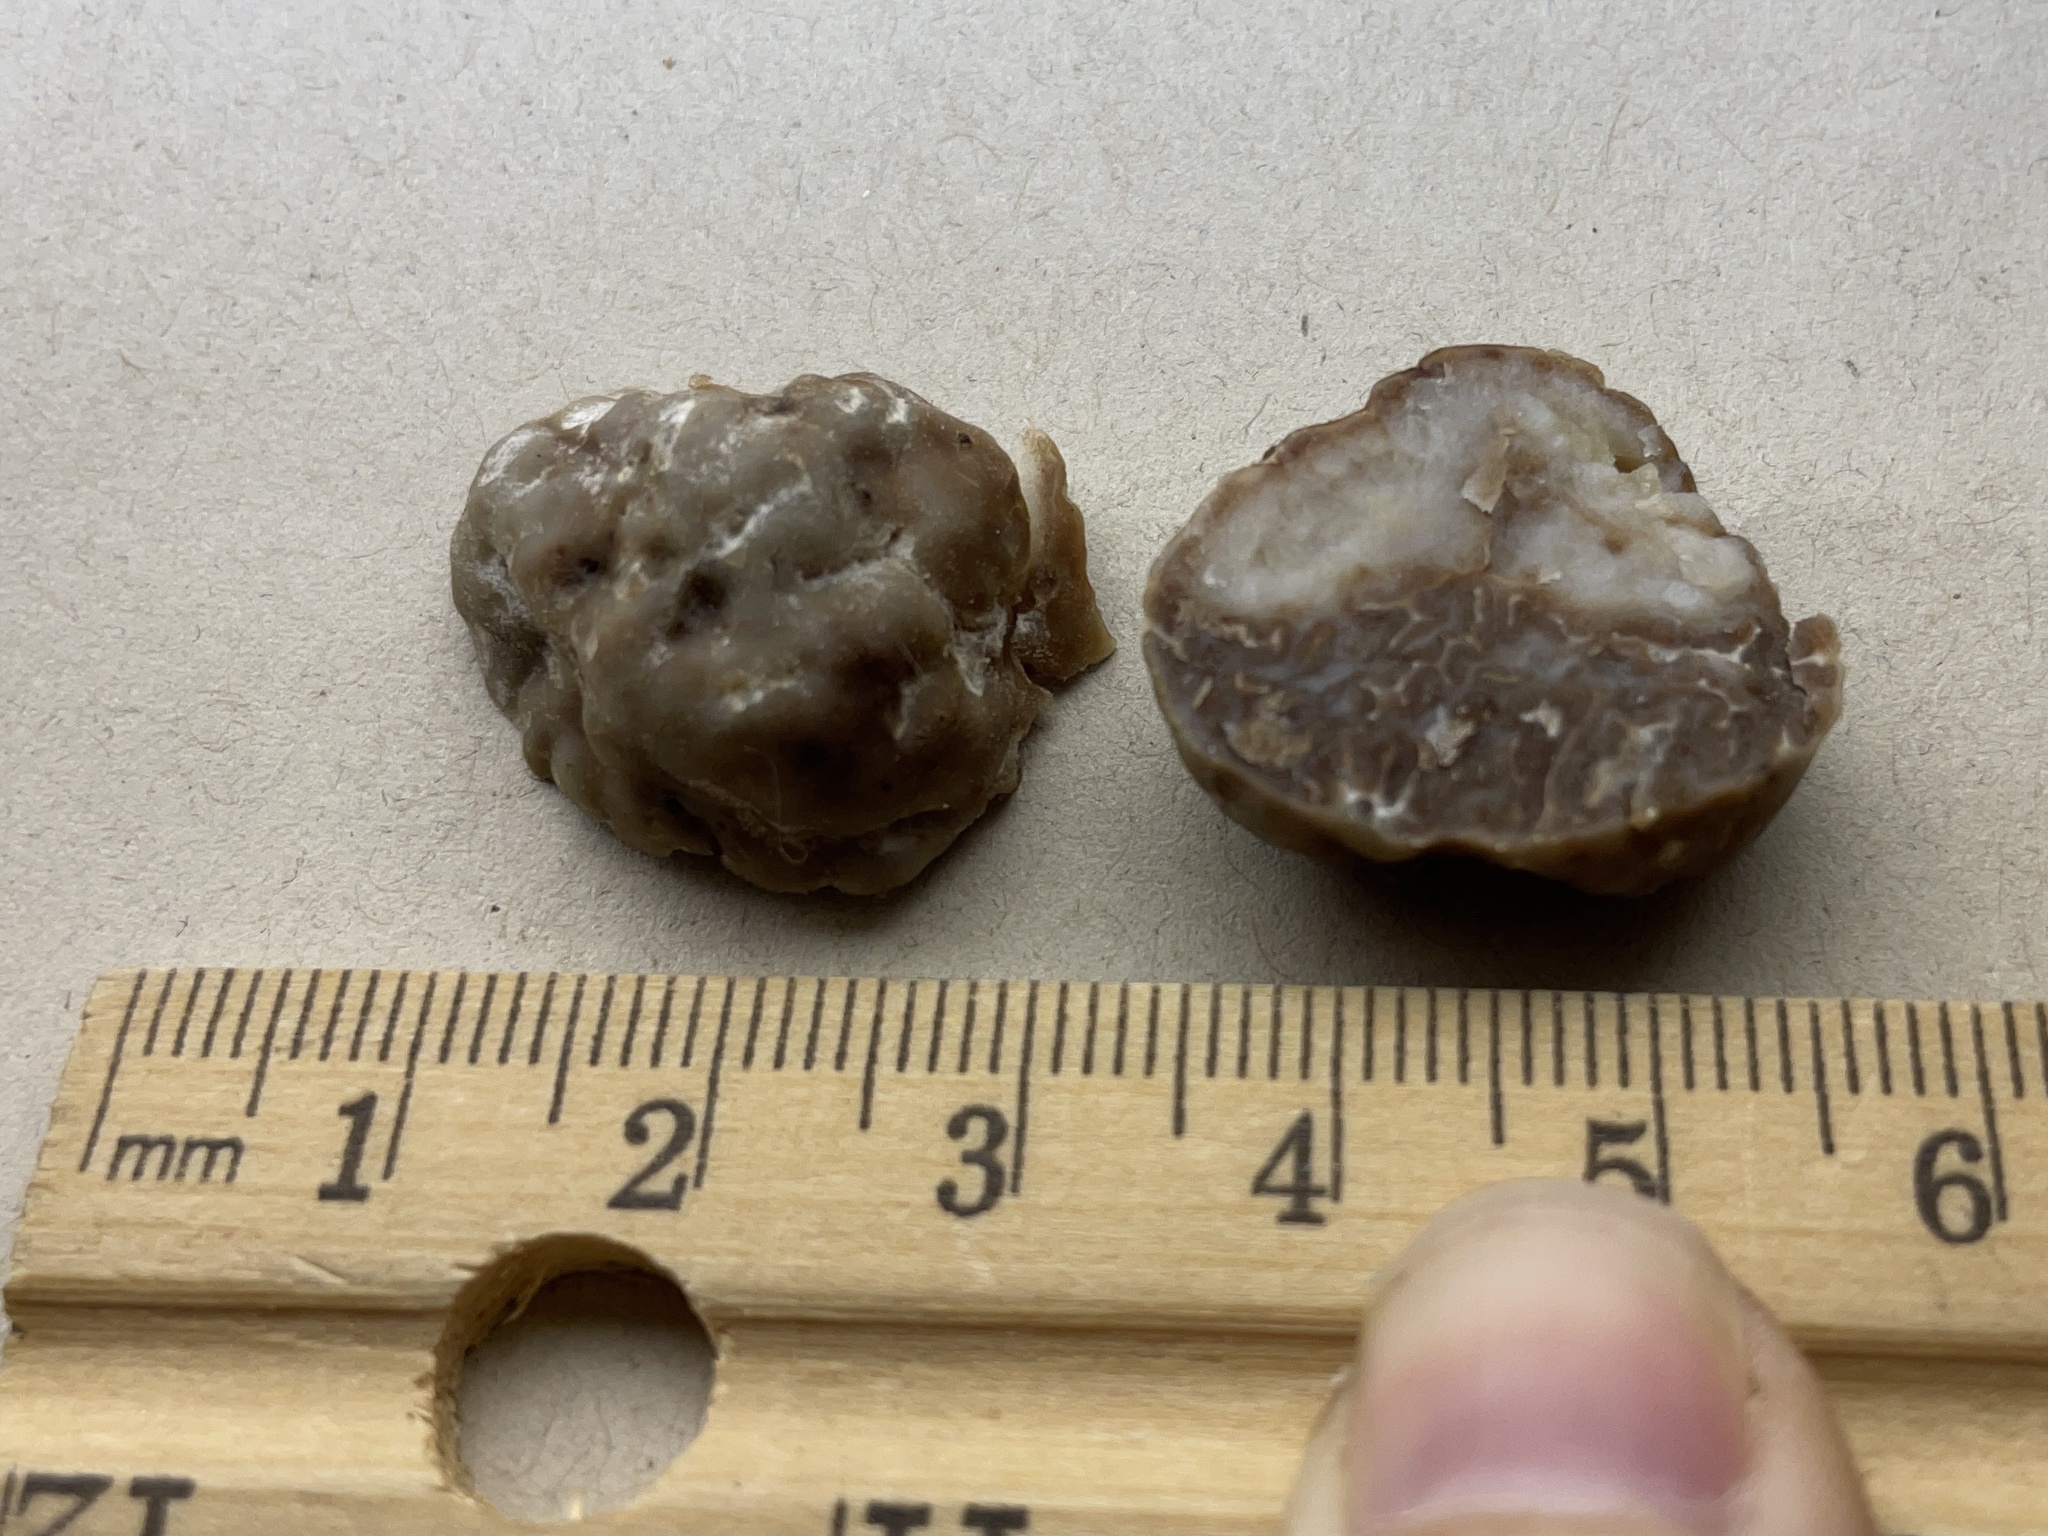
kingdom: Fungi
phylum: Ascomycota
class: Pezizomycetes
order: Pezizales
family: Tuberaceae
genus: Tuber
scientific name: Tuber gibbosum
